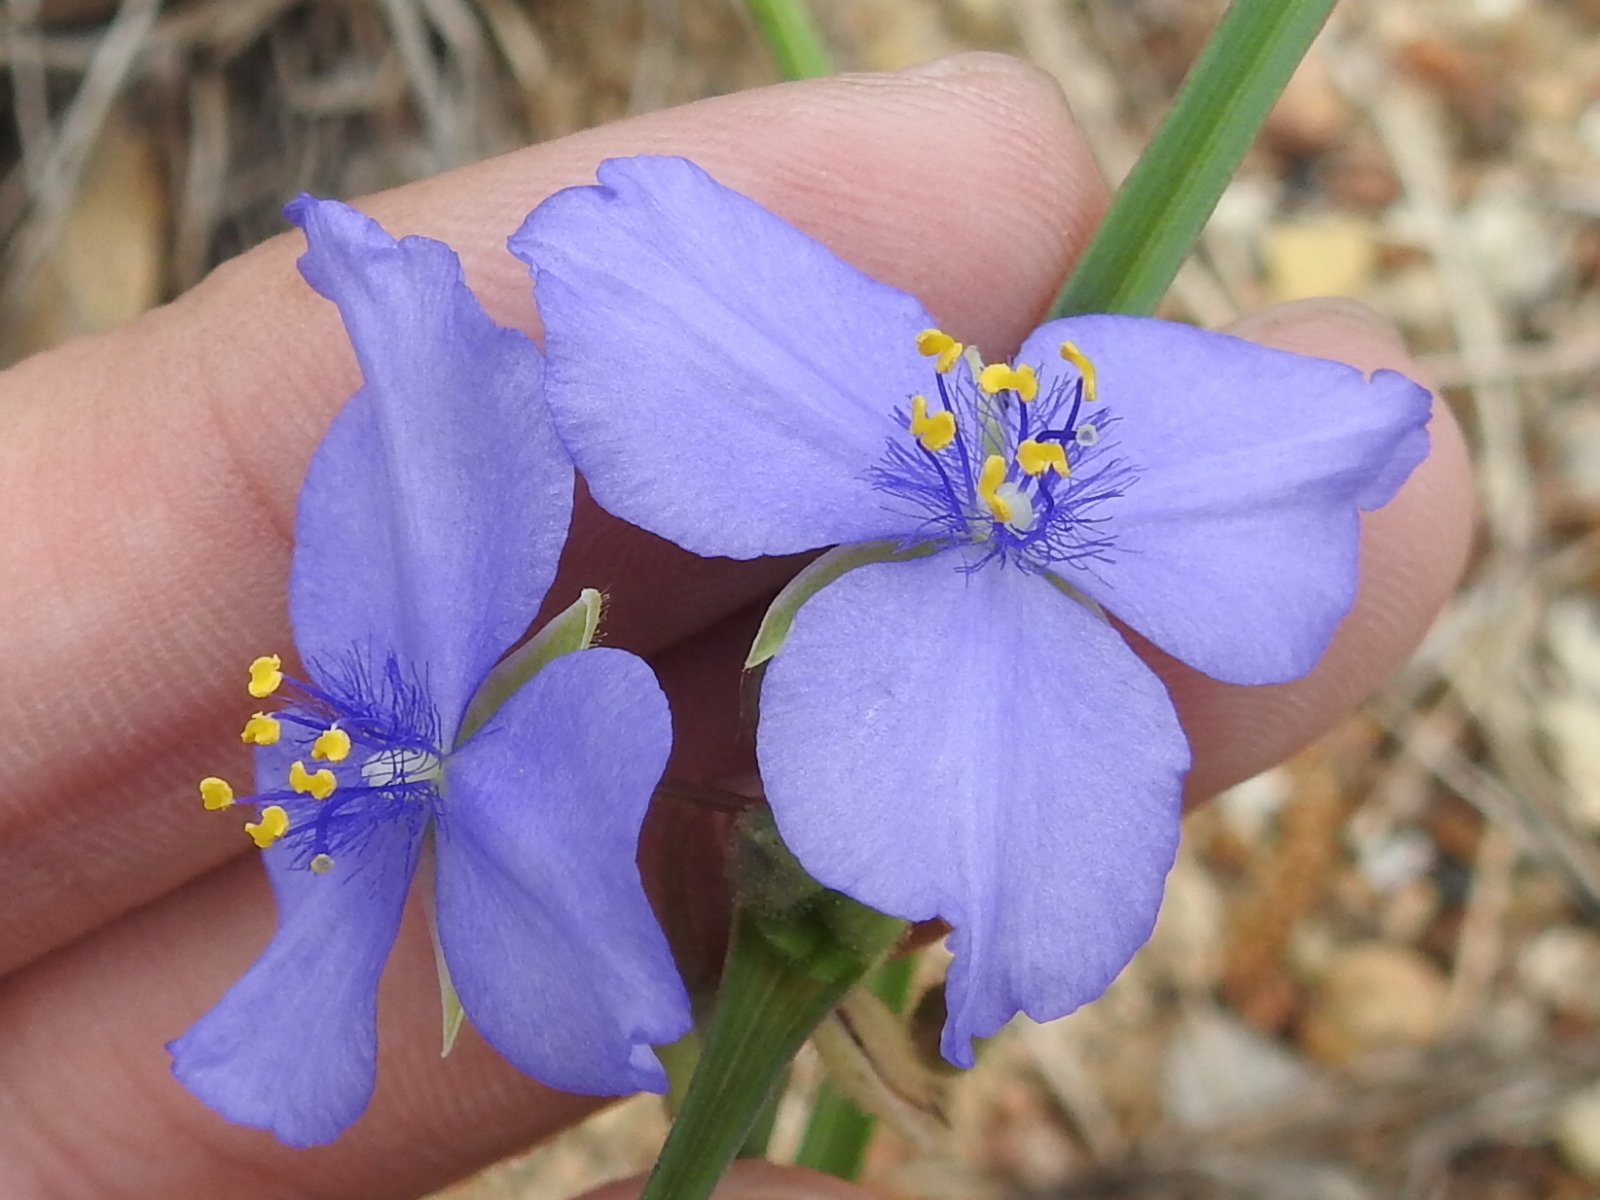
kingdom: Plantae
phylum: Tracheophyta
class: Liliopsida
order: Commelinales
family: Commelinaceae
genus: Tradescantia
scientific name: Tradescantia ohiensis
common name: Ohio spiderwort
